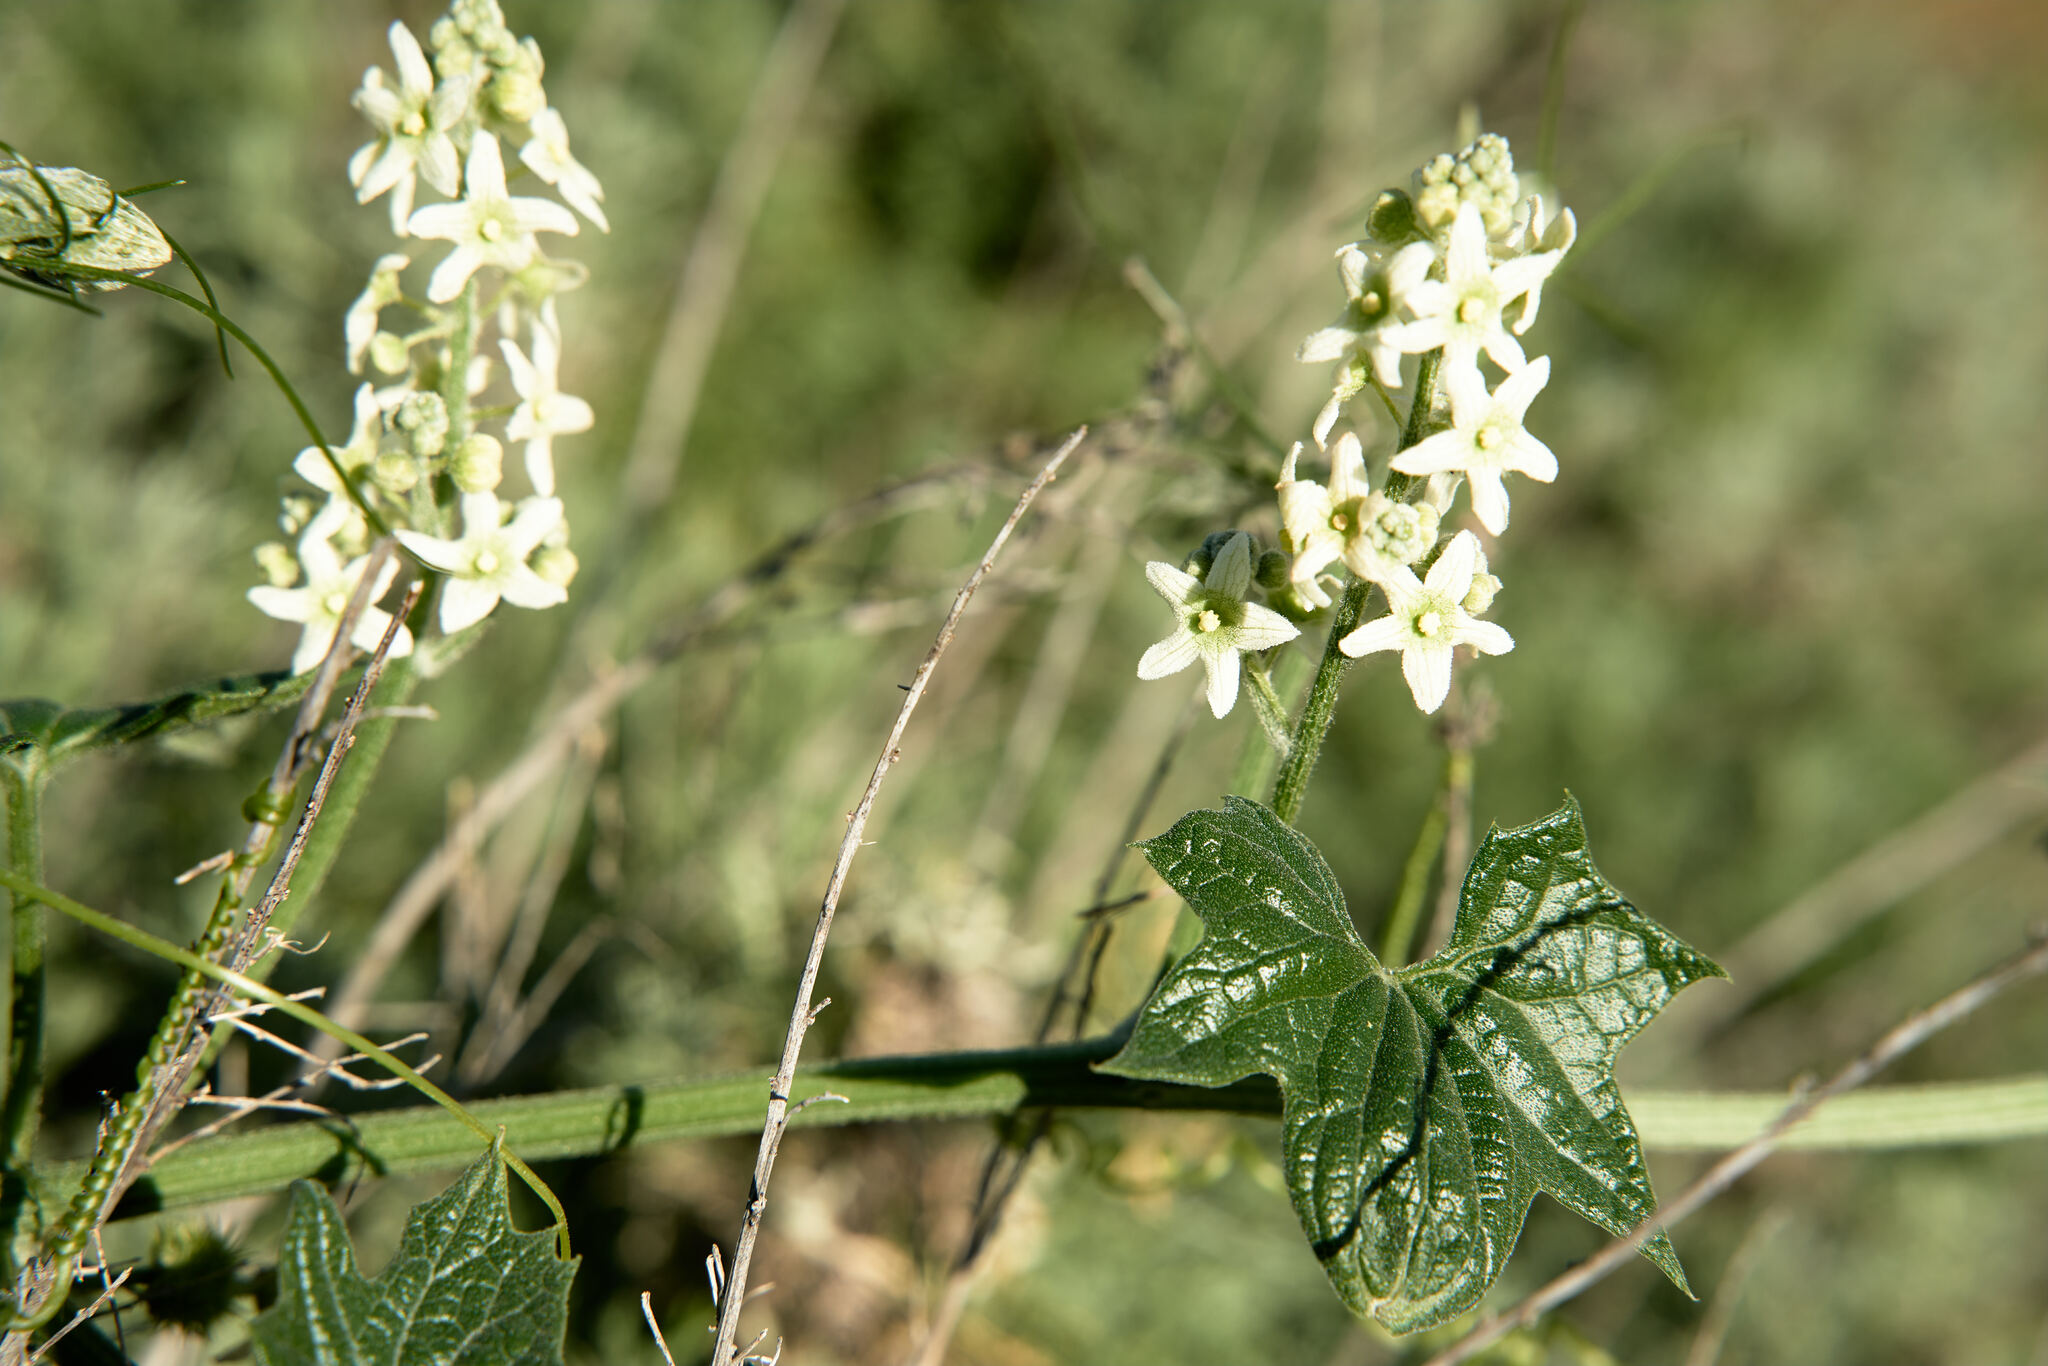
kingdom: Plantae
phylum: Tracheophyta
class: Magnoliopsida
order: Cucurbitales
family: Cucurbitaceae
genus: Marah
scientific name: Marah fabacea
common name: California manroot
